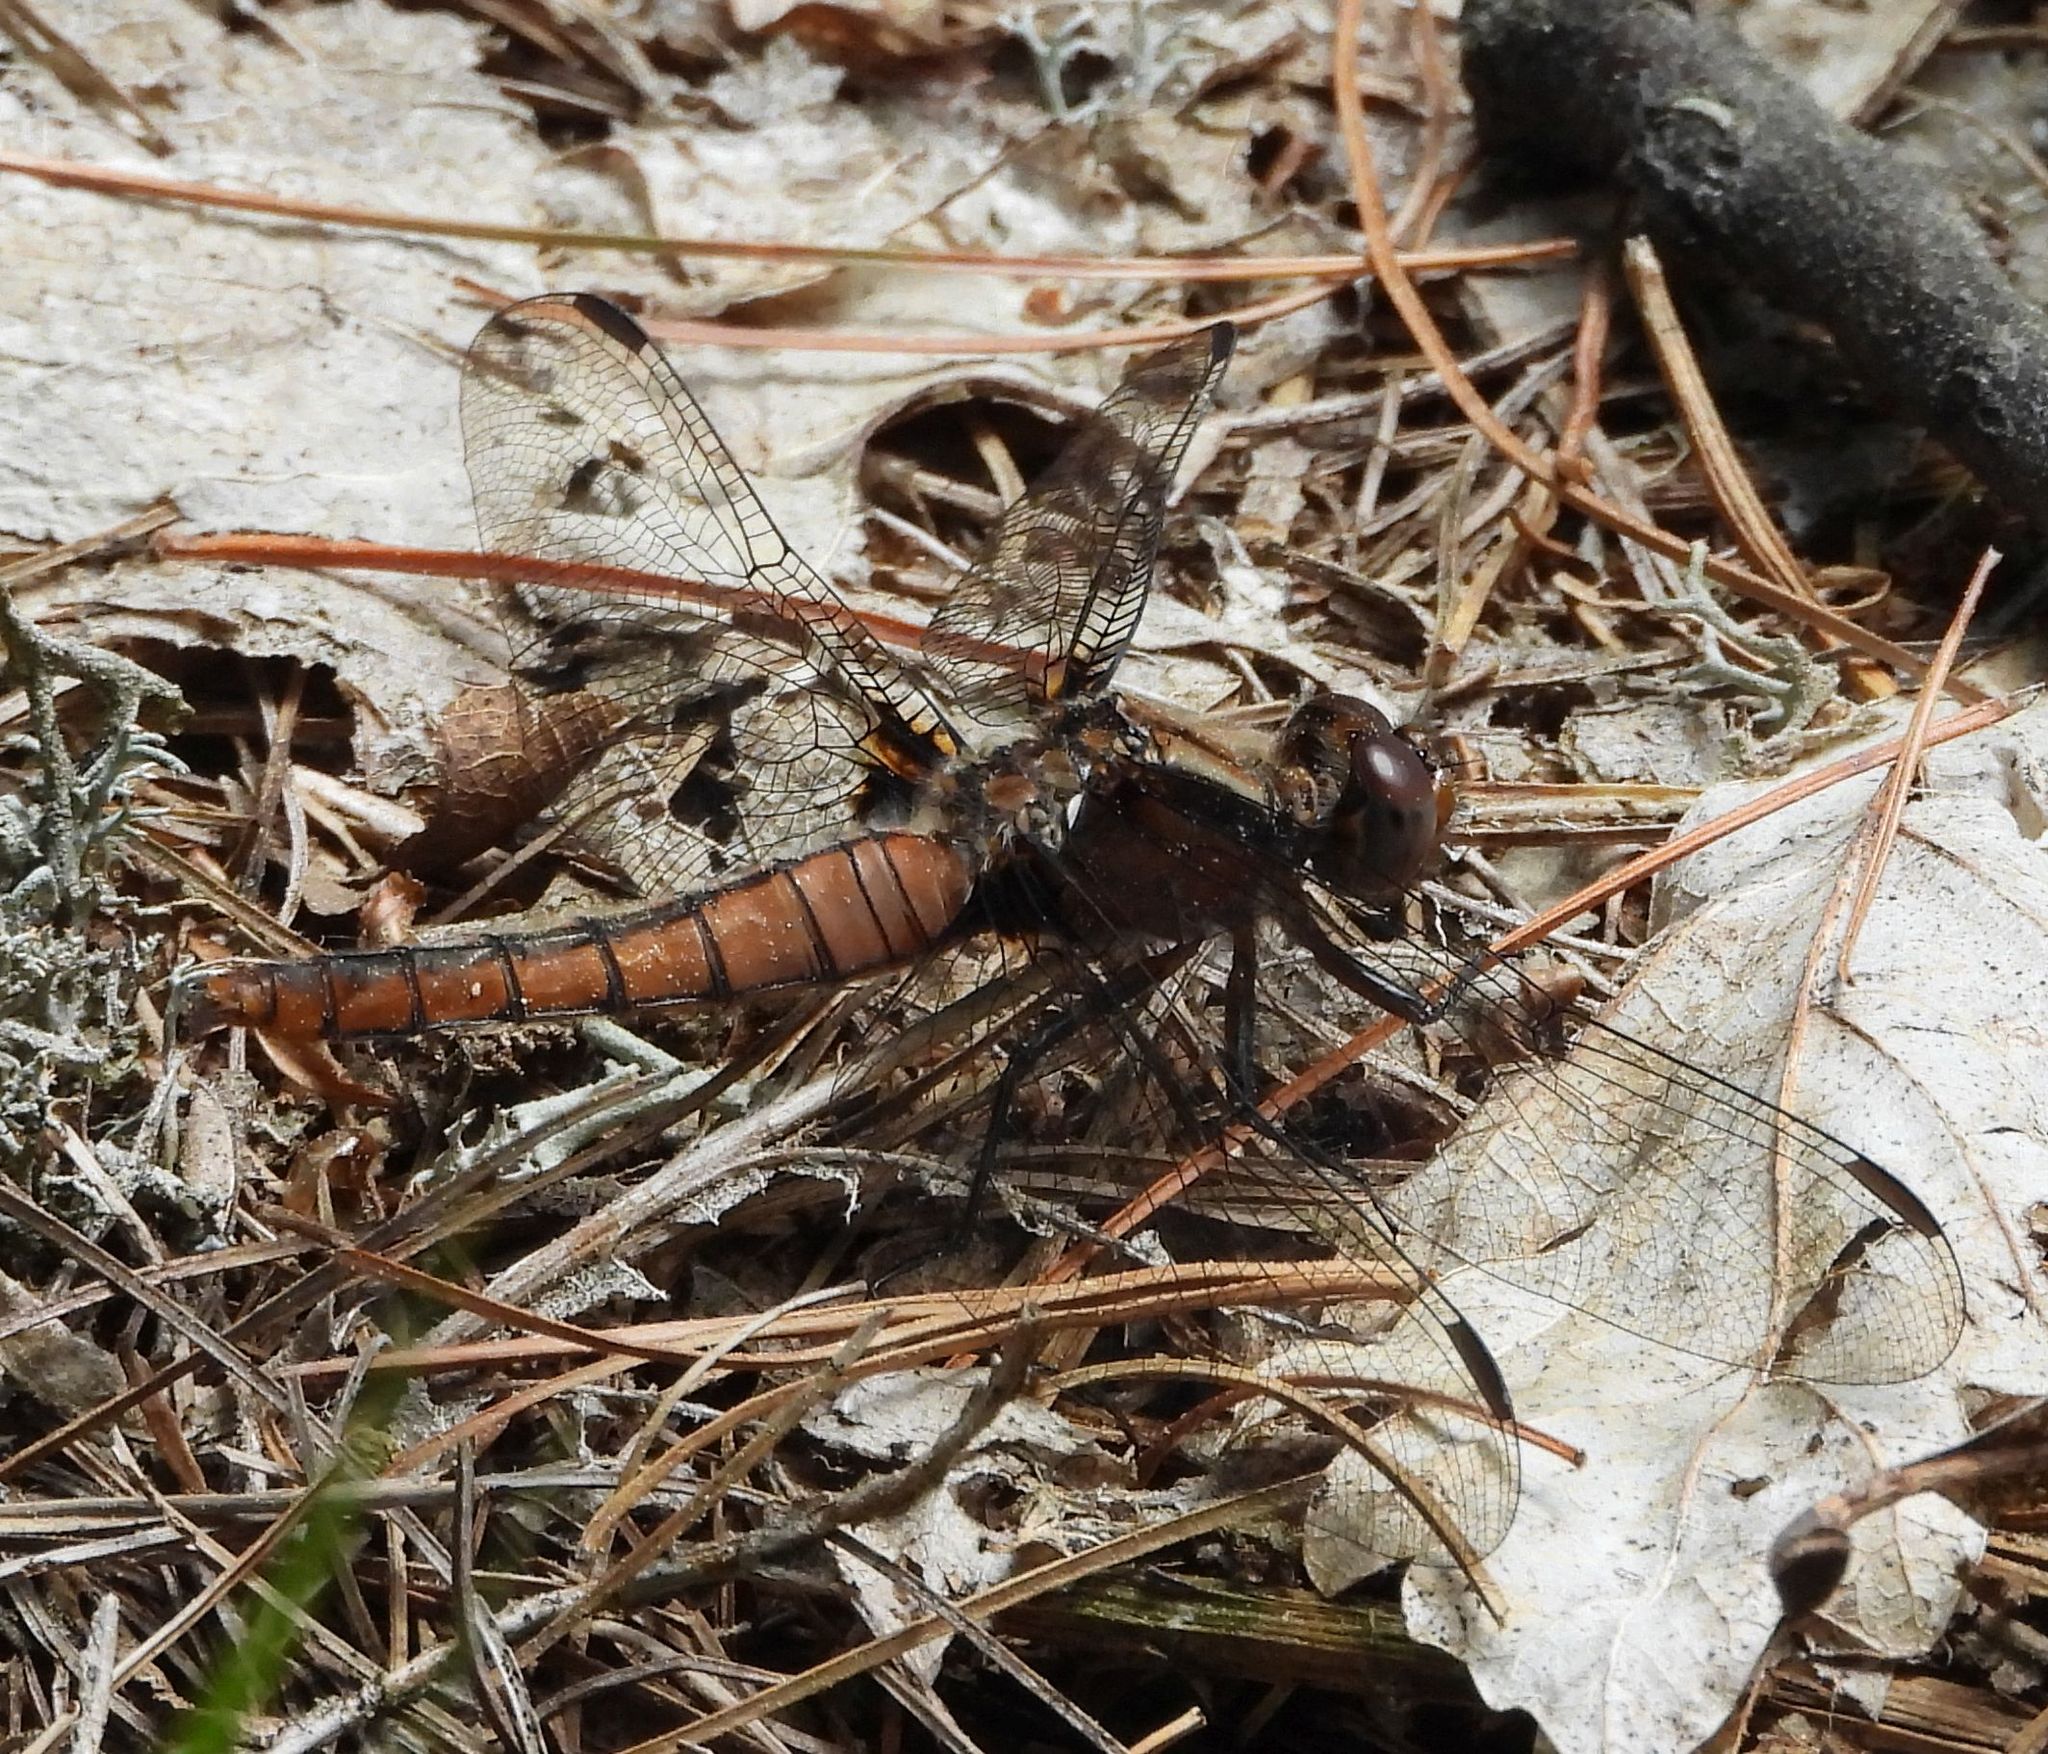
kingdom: Animalia
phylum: Arthropoda
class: Insecta
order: Odonata
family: Libellulidae
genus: Ladona
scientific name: Ladona julia
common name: Chalk-fronted corporal
